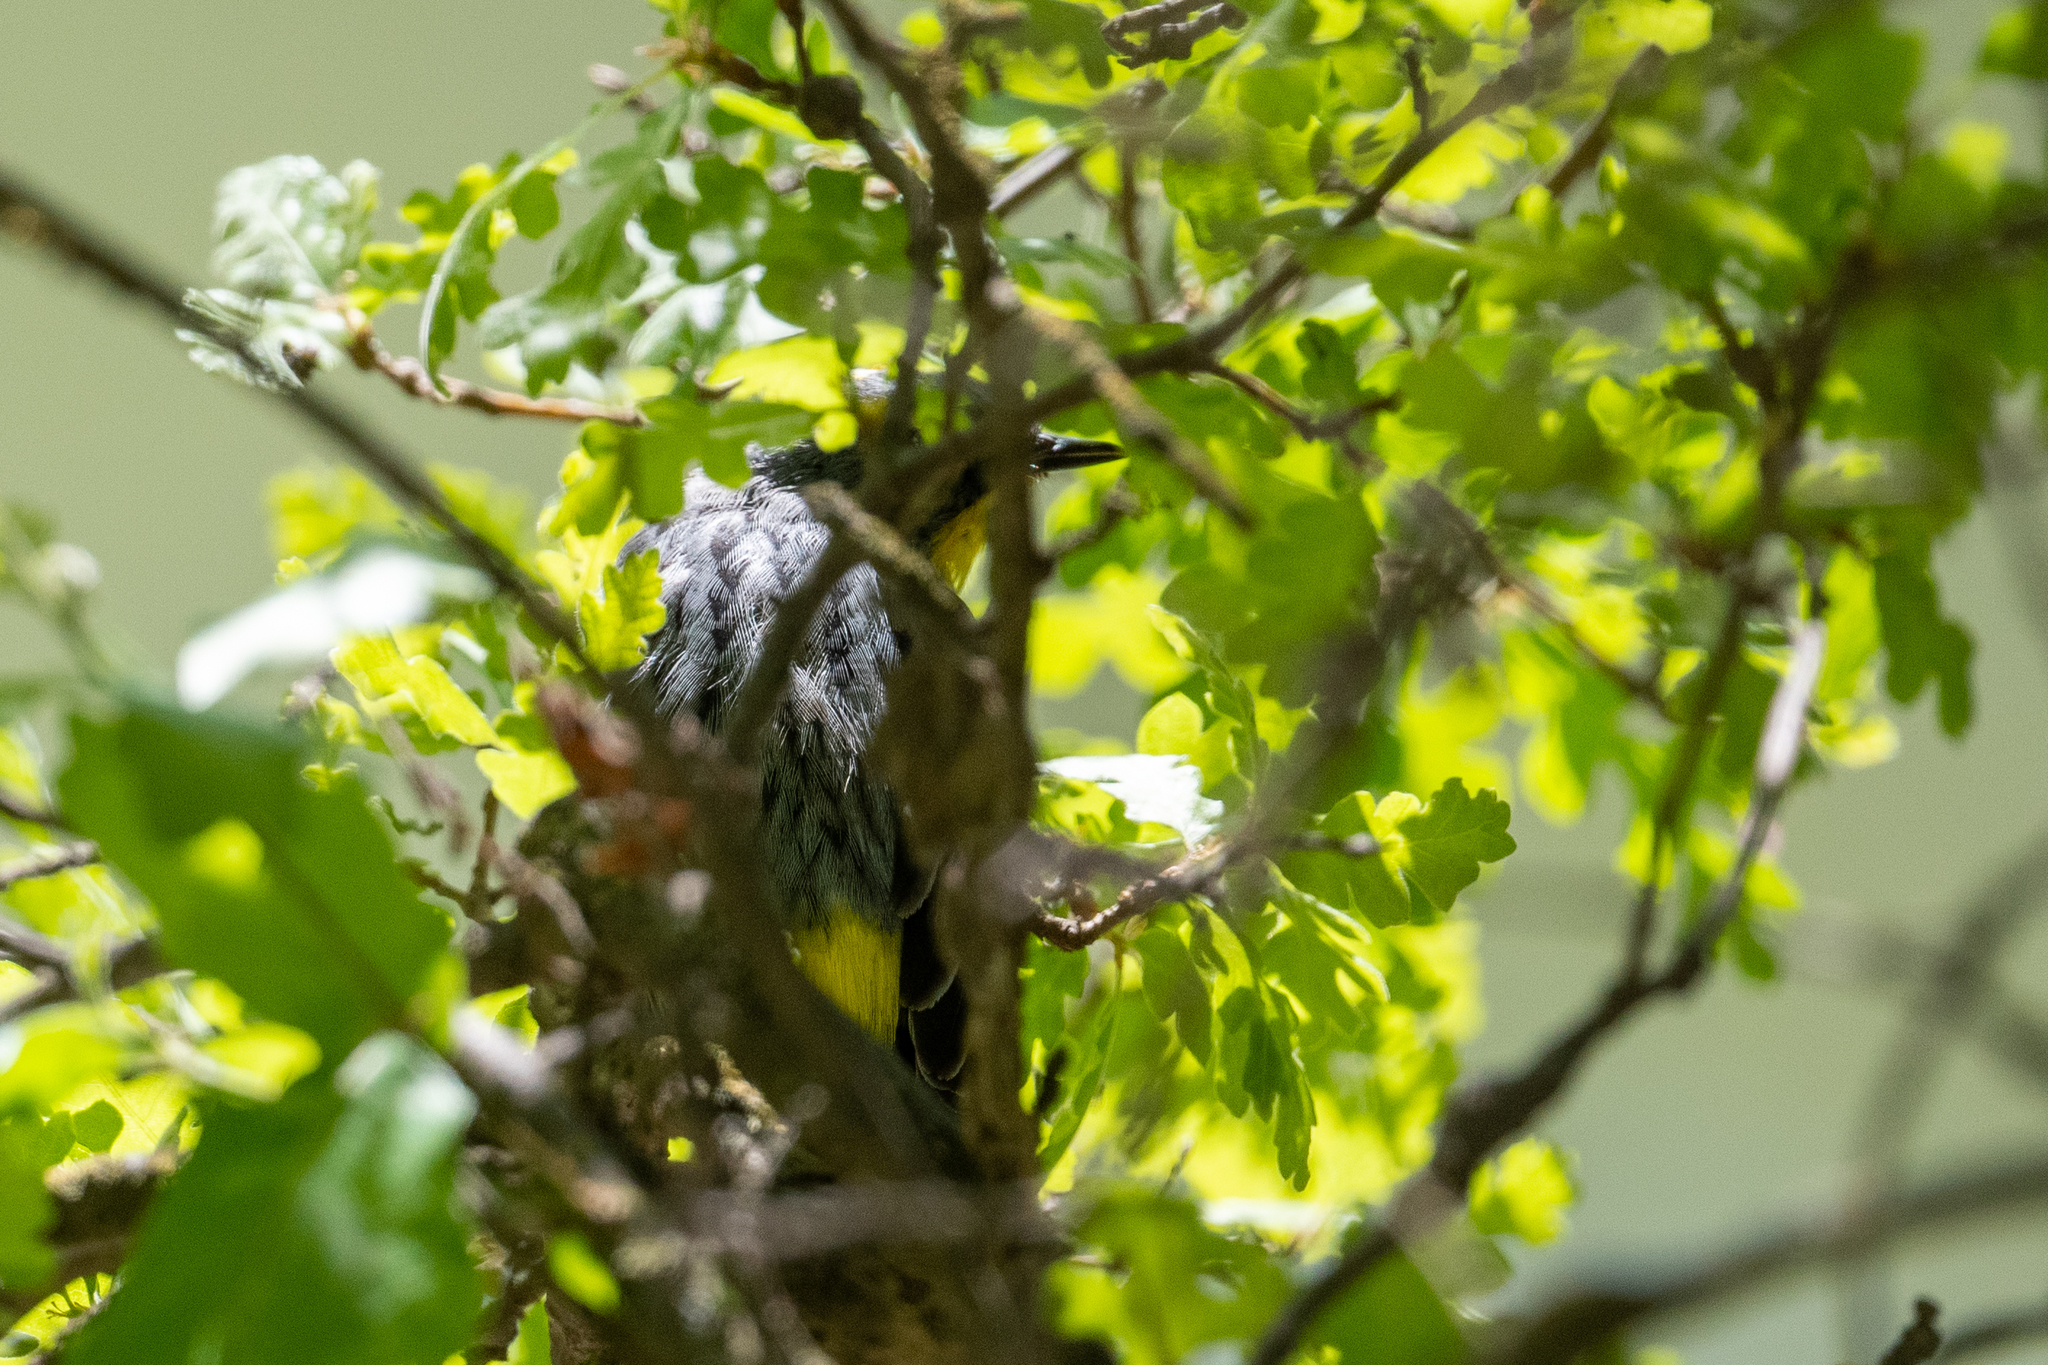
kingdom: Animalia
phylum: Chordata
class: Aves
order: Passeriformes
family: Parulidae
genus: Setophaga
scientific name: Setophaga coronata
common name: Myrtle warbler
